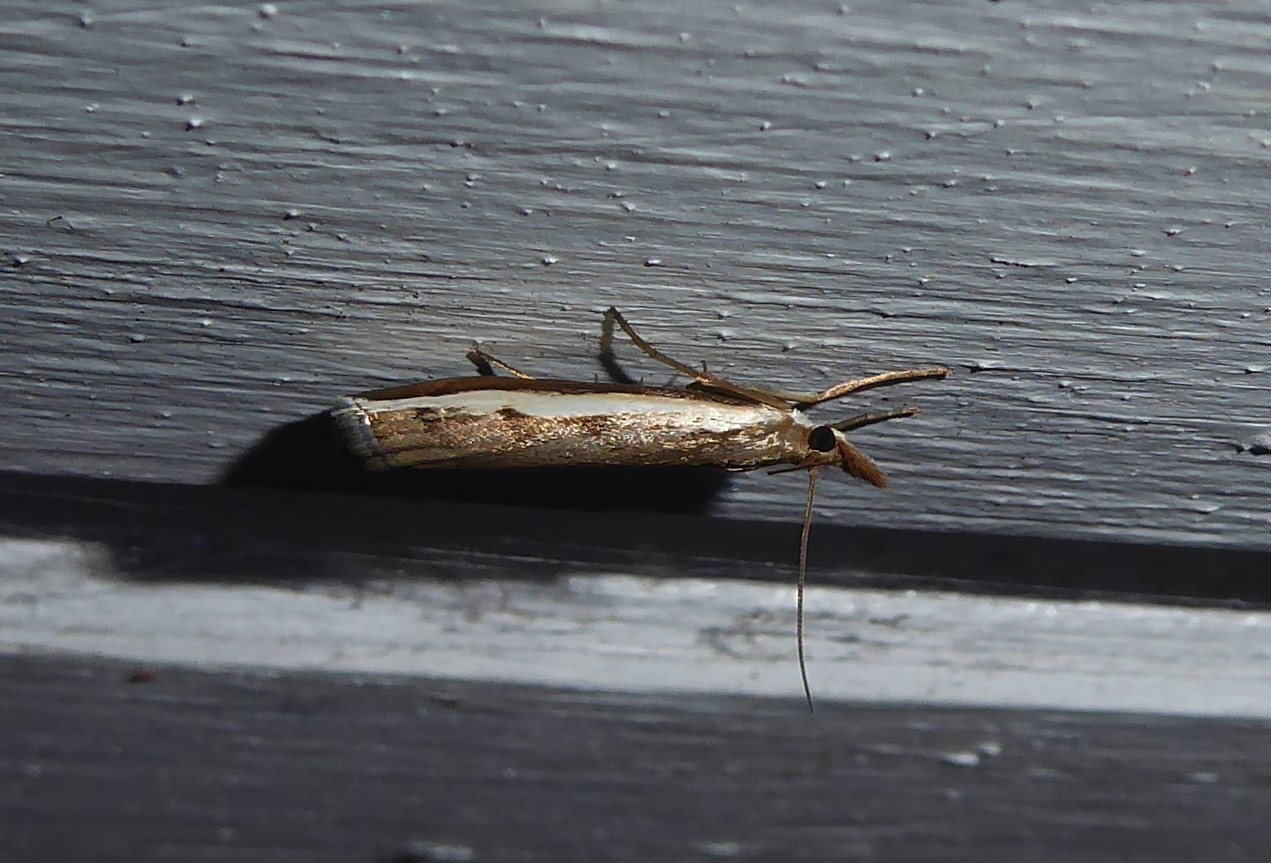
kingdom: Animalia
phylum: Arthropoda
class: Insecta
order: Lepidoptera
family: Crambidae
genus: Orocrambus
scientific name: Orocrambus flexuosellus
